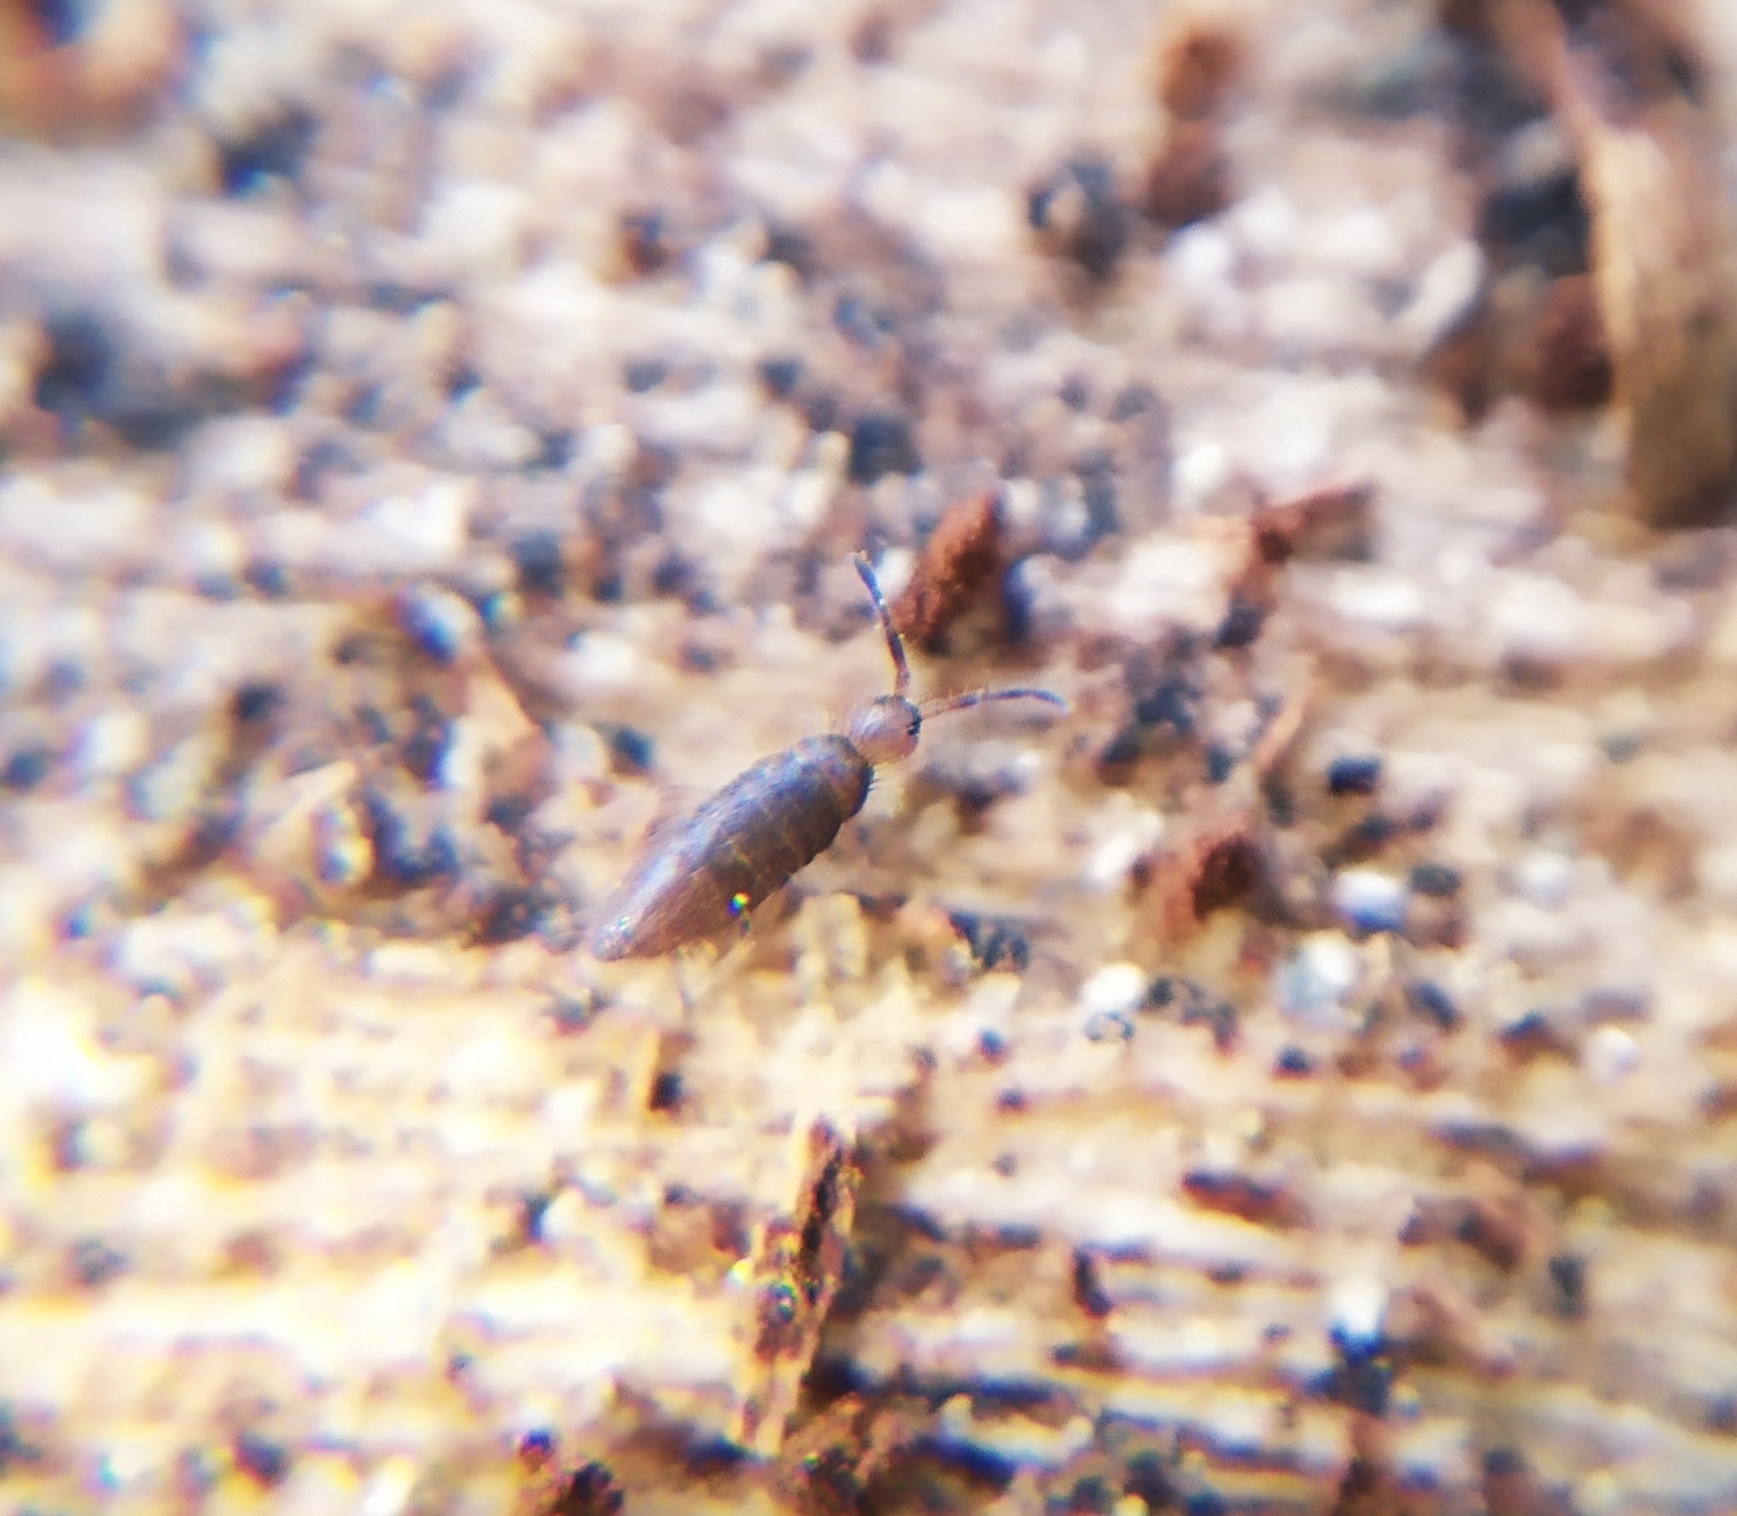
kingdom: Animalia
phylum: Arthropoda
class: Collembola
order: Entomobryomorpha
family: Entomobryidae
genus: Willowsia
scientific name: Willowsia buski
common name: Damp grain springtail
